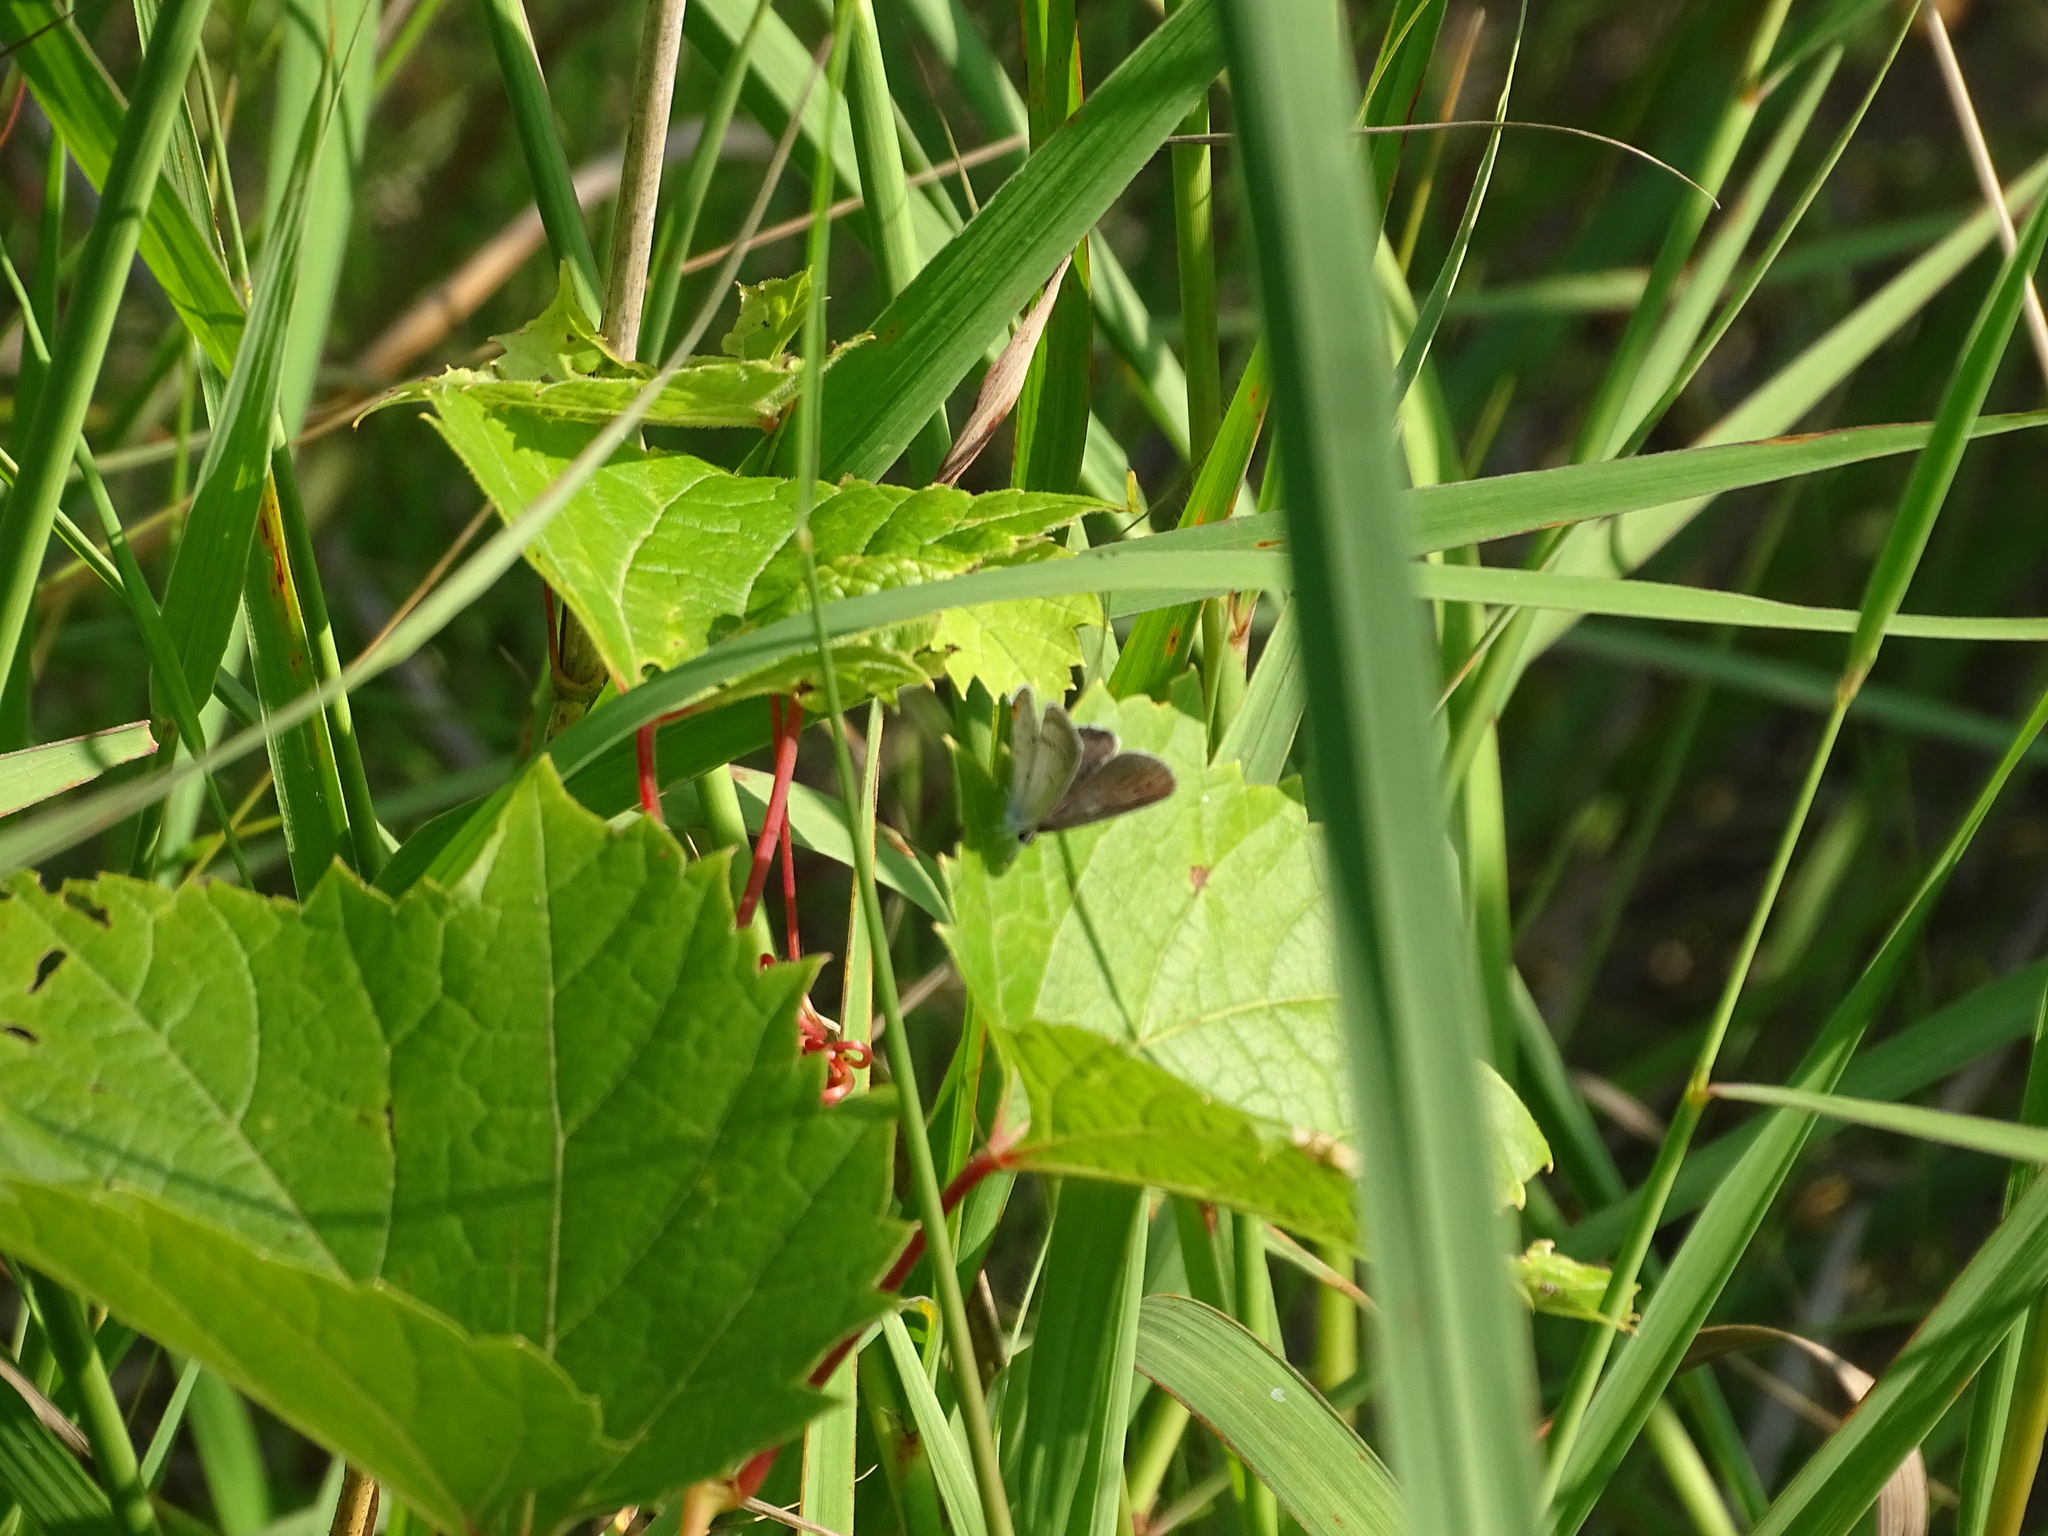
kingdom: Animalia
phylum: Arthropoda
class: Insecta
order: Lepidoptera
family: Lycaenidae
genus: Elkalyce
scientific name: Elkalyce comyntas
